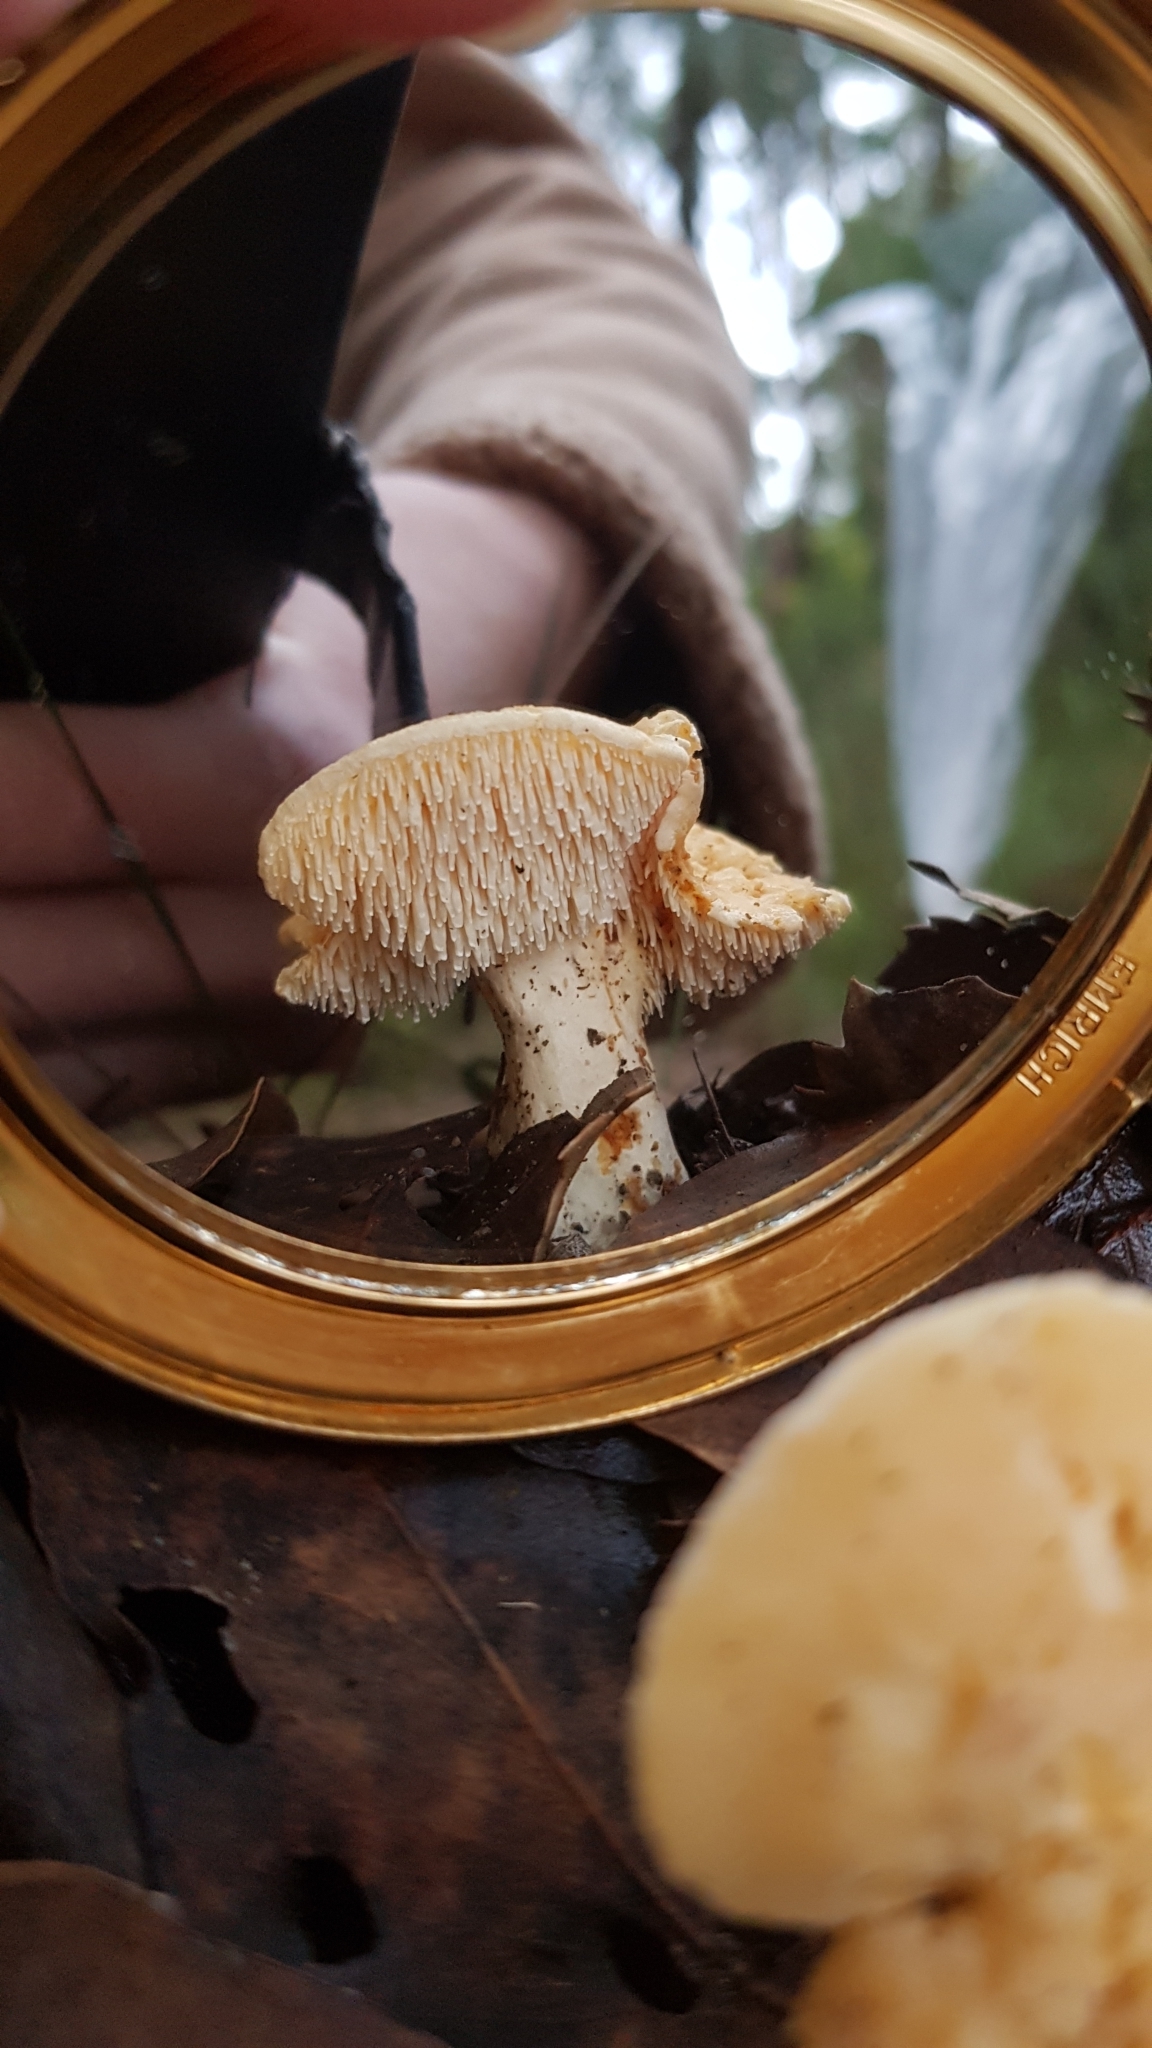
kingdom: Fungi
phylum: Basidiomycota
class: Agaricomycetes
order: Cantharellales
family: Hydnaceae
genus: Hydnum
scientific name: Hydnum ambustum
